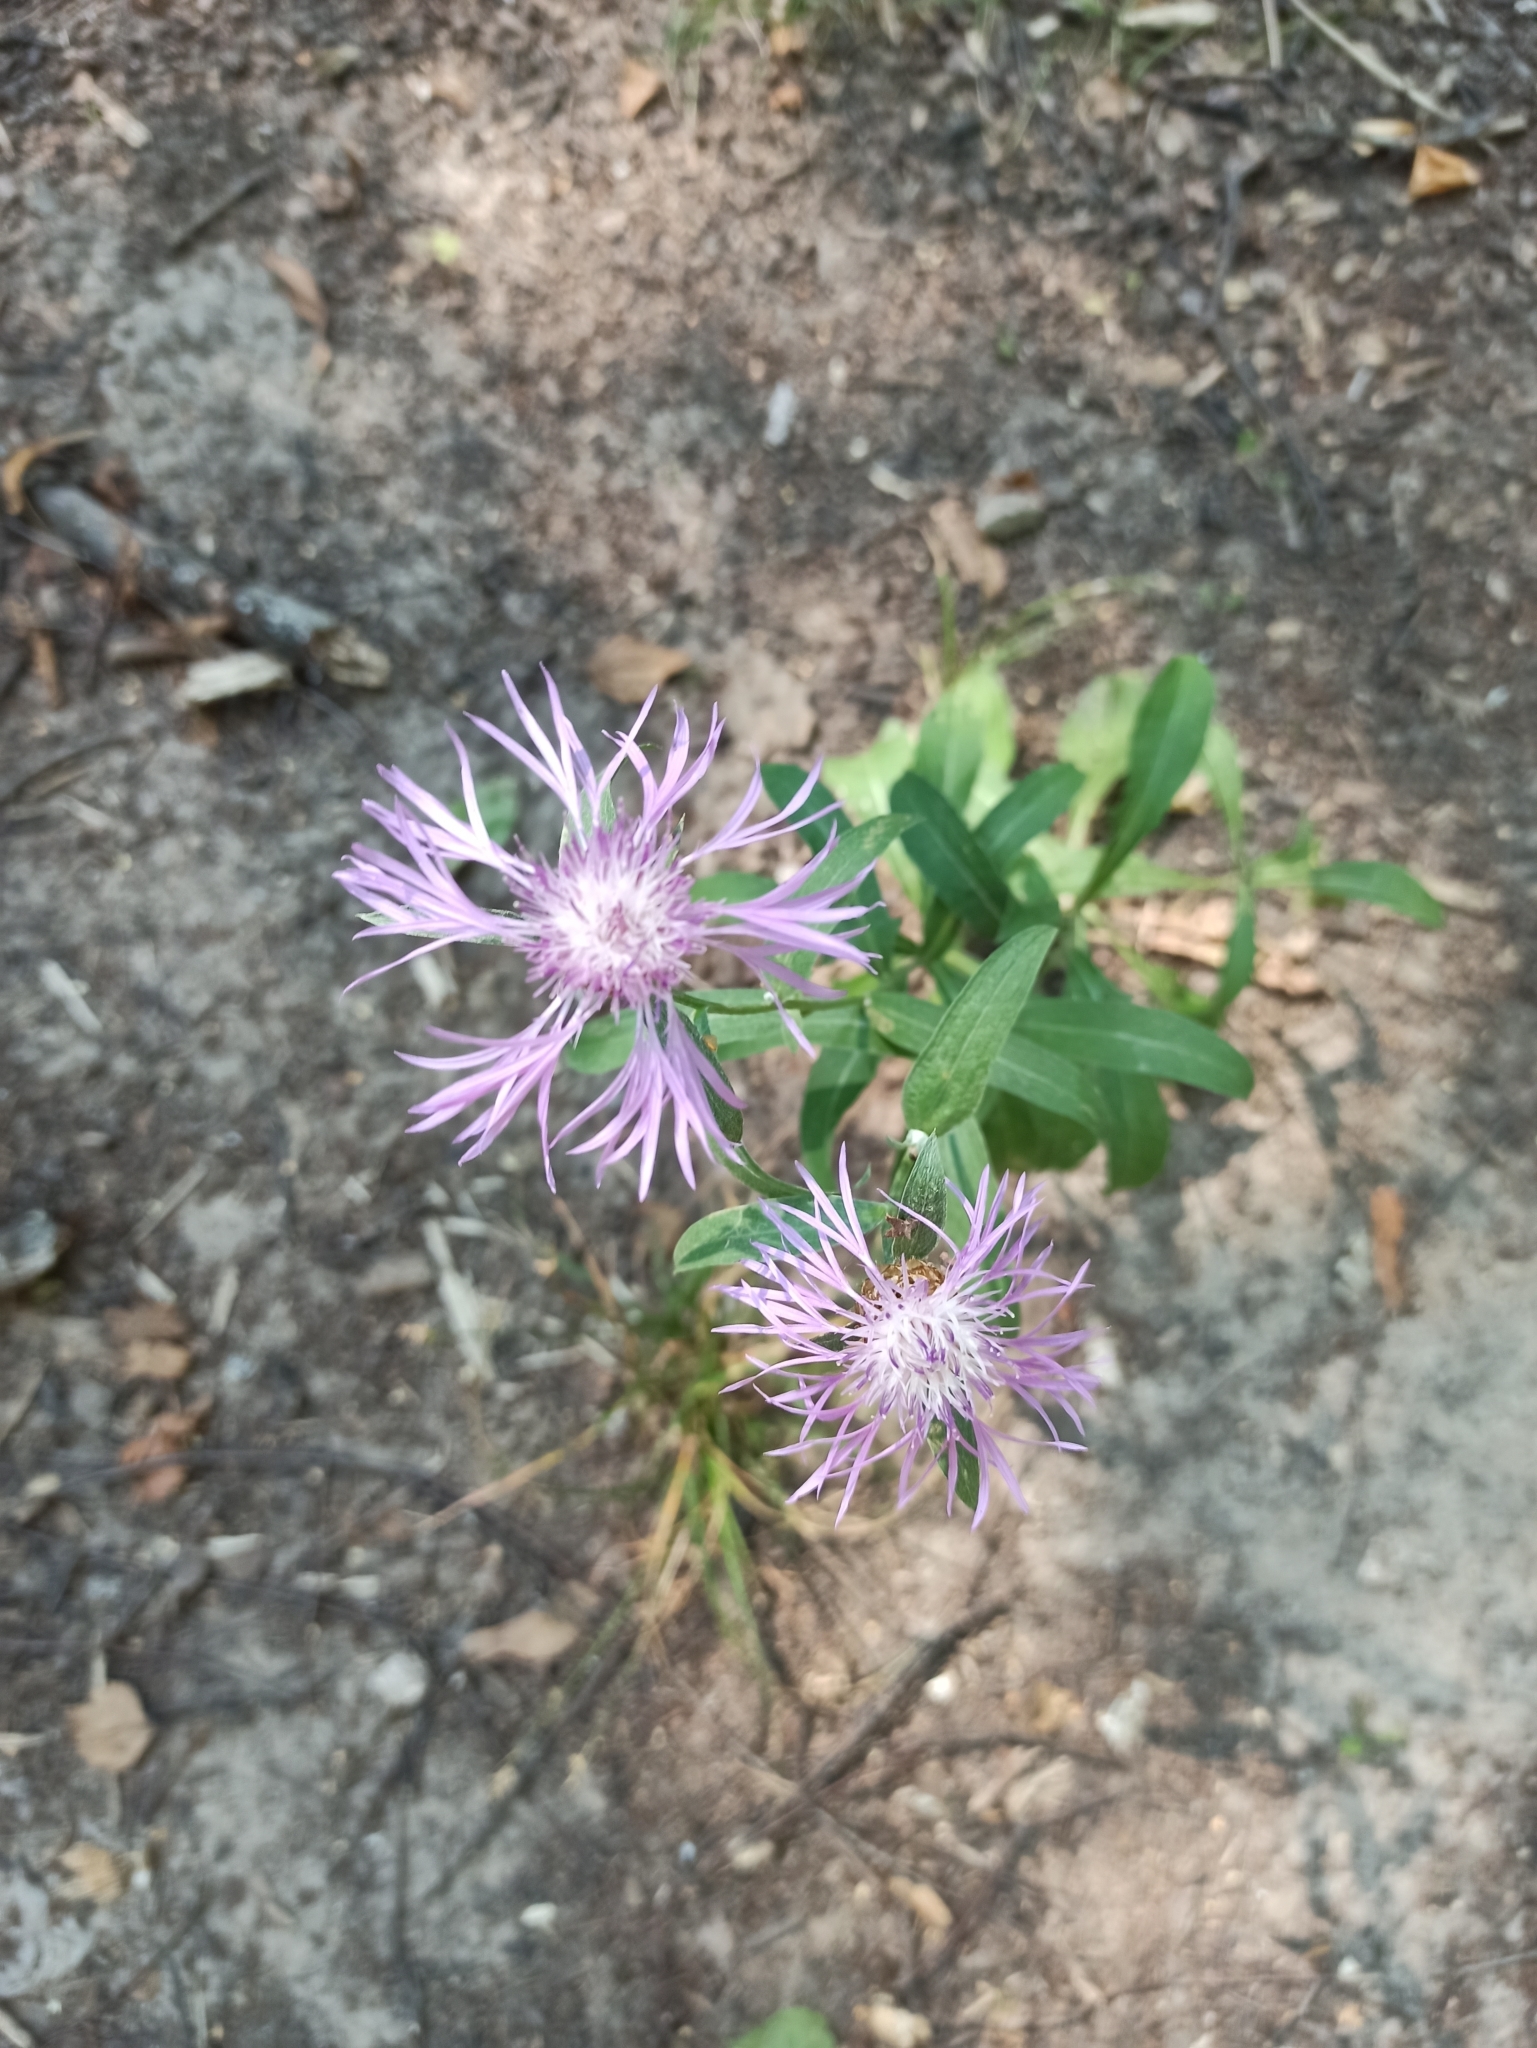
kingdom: Plantae
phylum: Tracheophyta
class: Magnoliopsida
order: Asterales
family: Asteraceae
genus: Centaurea
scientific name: Centaurea jacea
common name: Brown knapweed
